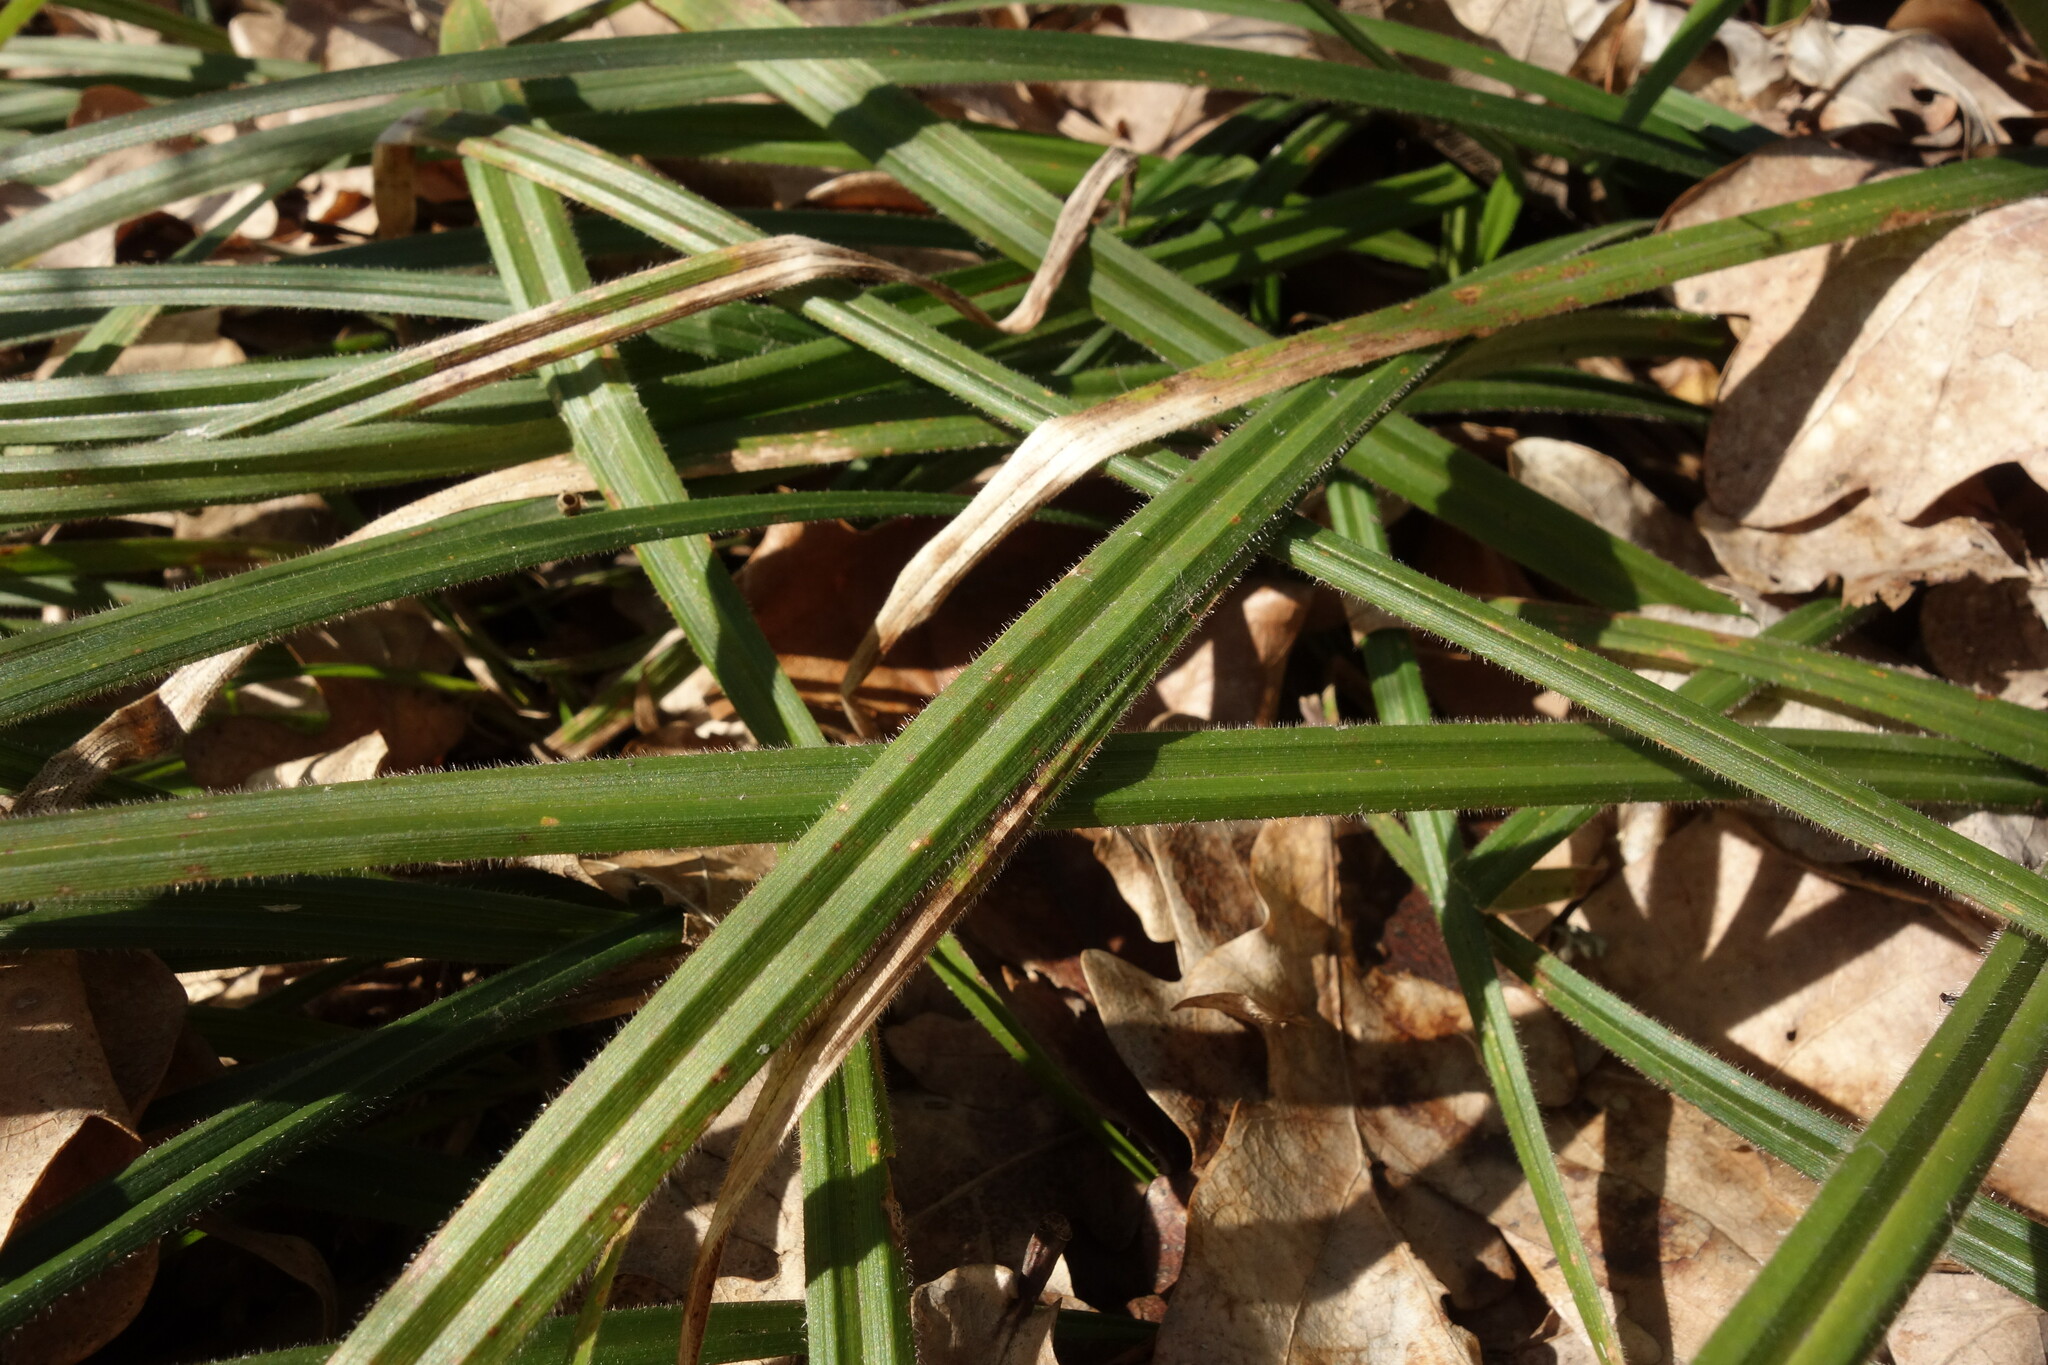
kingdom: Plantae
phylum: Tracheophyta
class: Liliopsida
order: Poales
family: Cyperaceae
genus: Carex
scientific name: Carex pilosa
